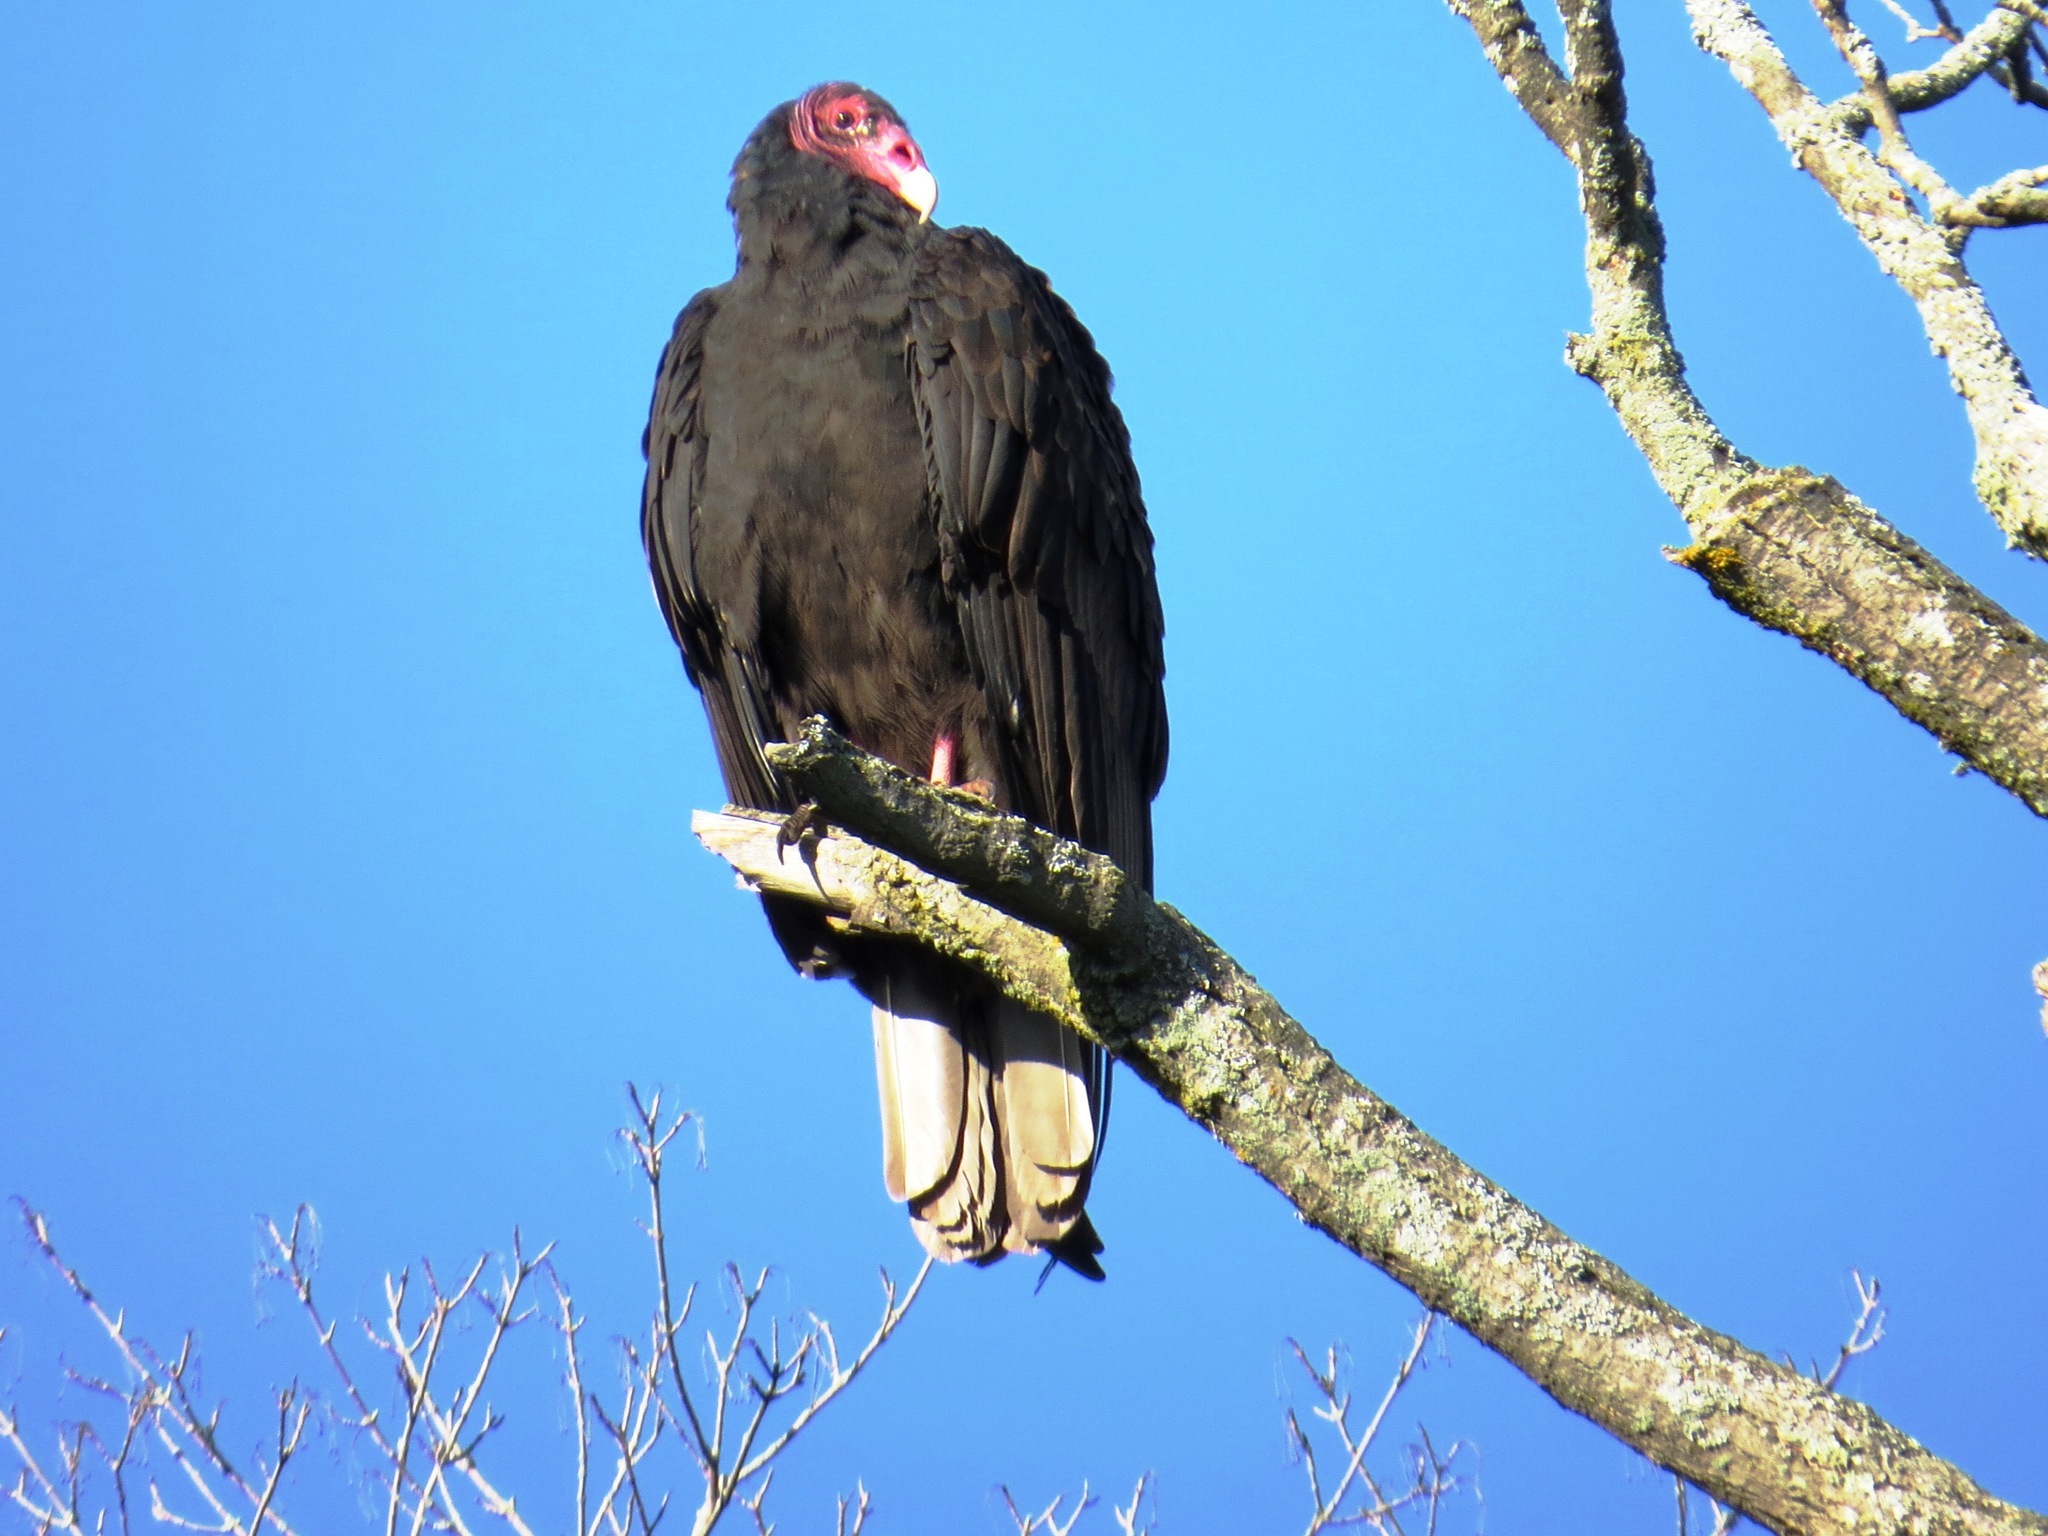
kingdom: Animalia
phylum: Chordata
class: Aves
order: Accipitriformes
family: Cathartidae
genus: Cathartes
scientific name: Cathartes aura
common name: Turkey vulture
